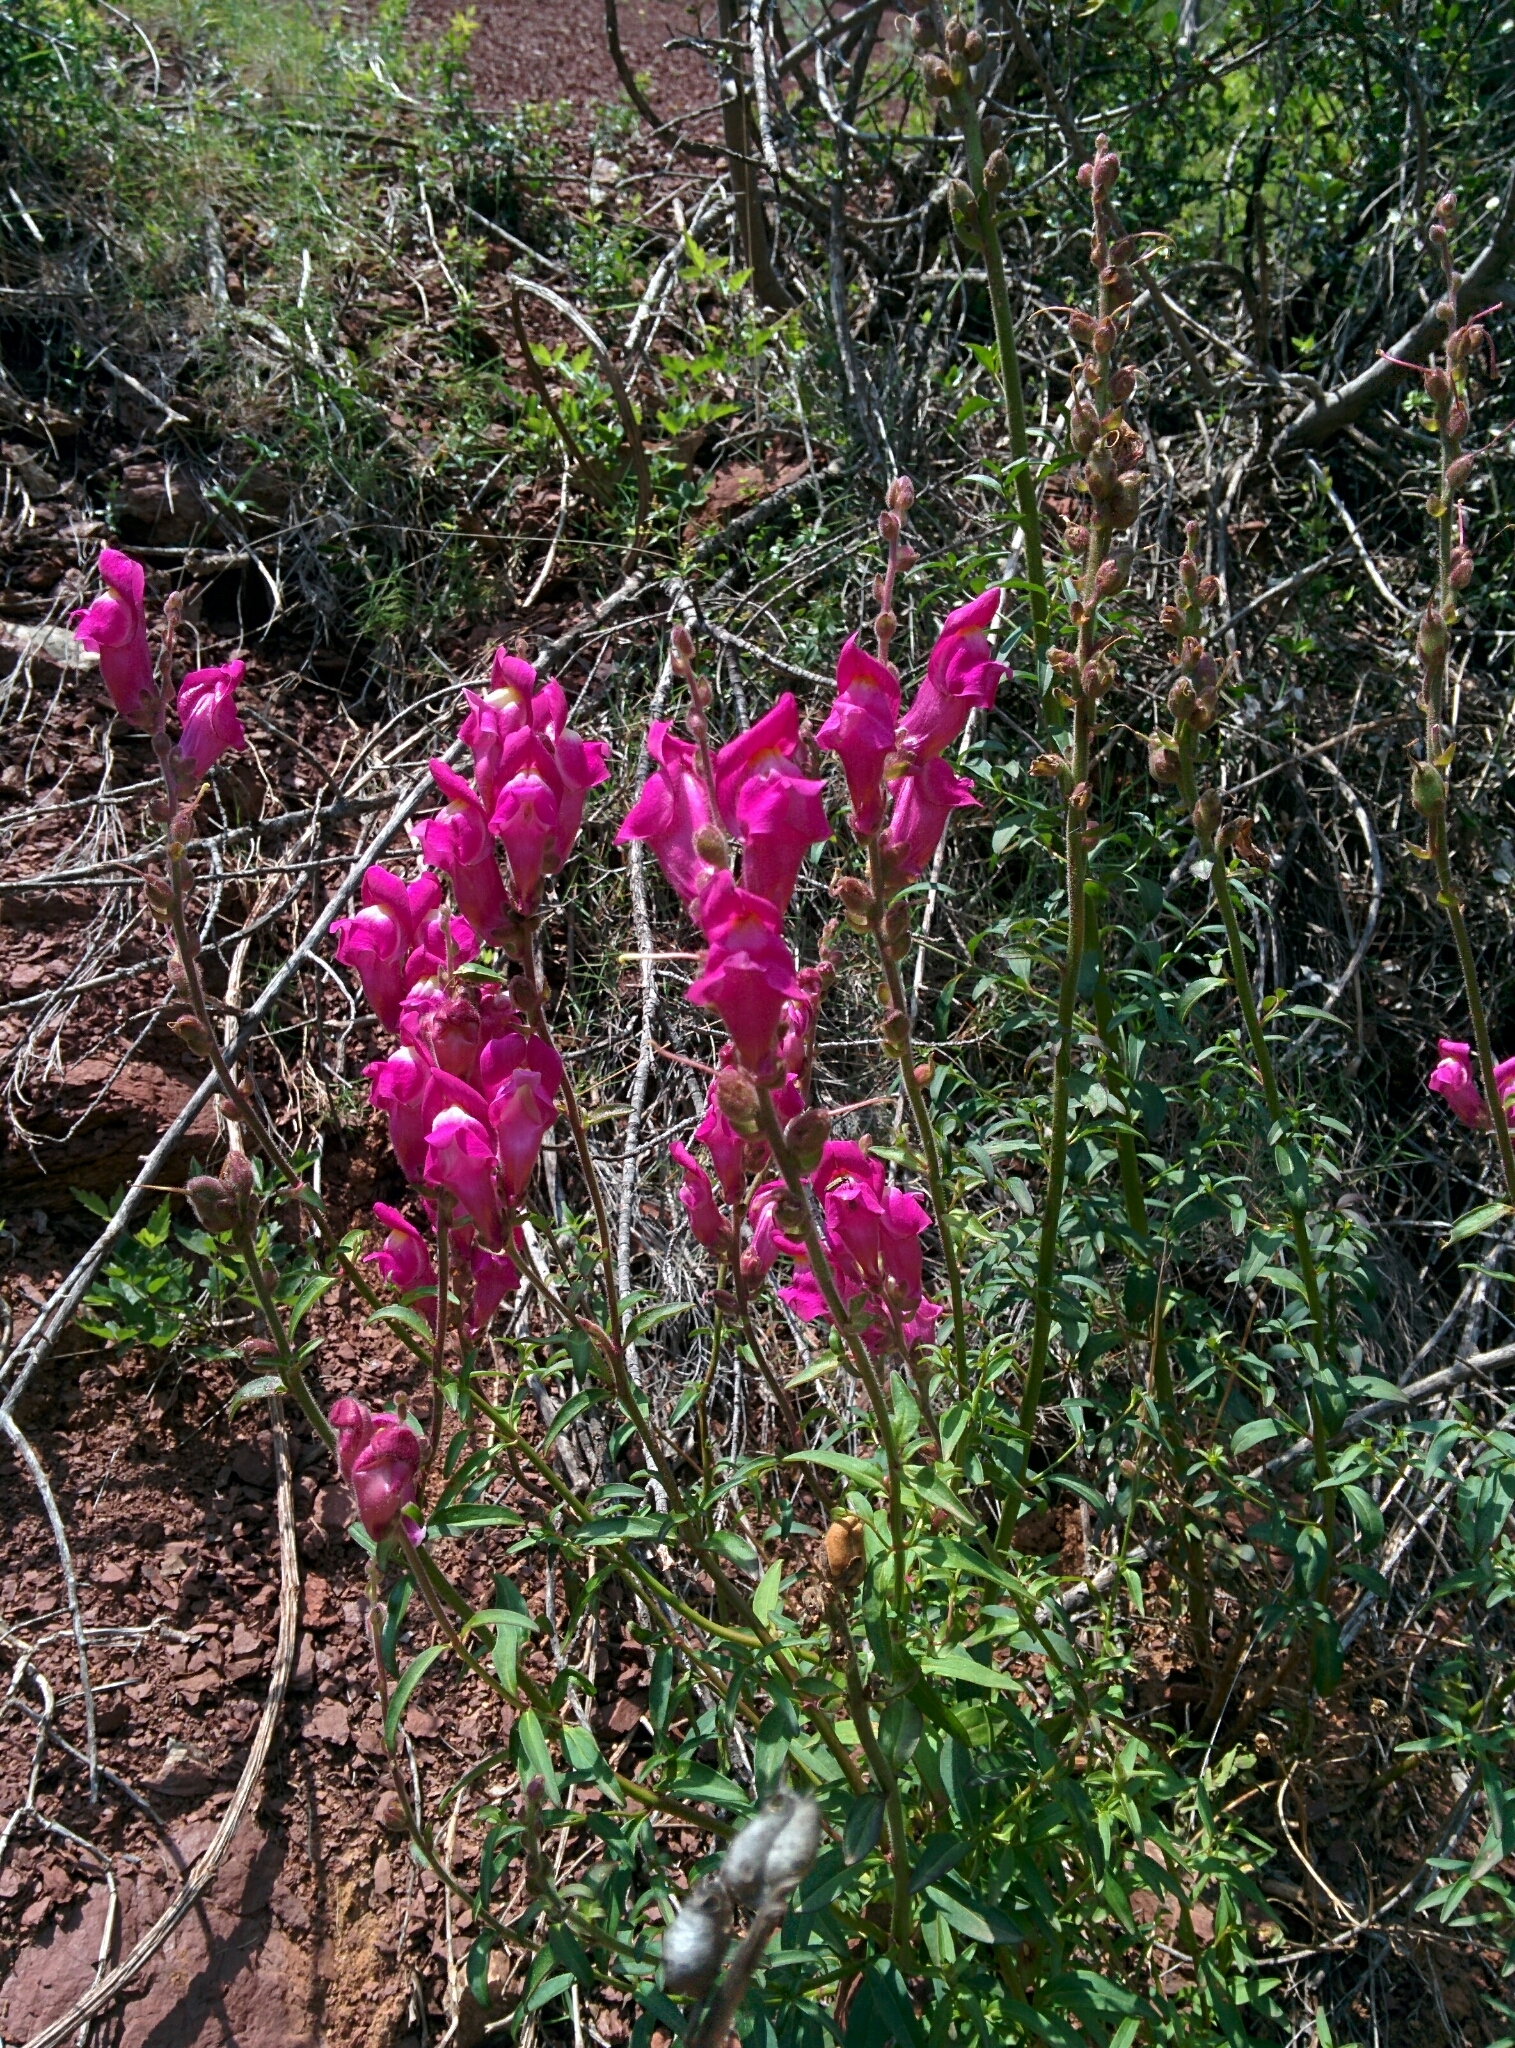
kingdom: Plantae
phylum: Tracheophyta
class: Magnoliopsida
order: Lamiales
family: Plantaginaceae
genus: Antirrhinum
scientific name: Antirrhinum majus
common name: Snapdragon
